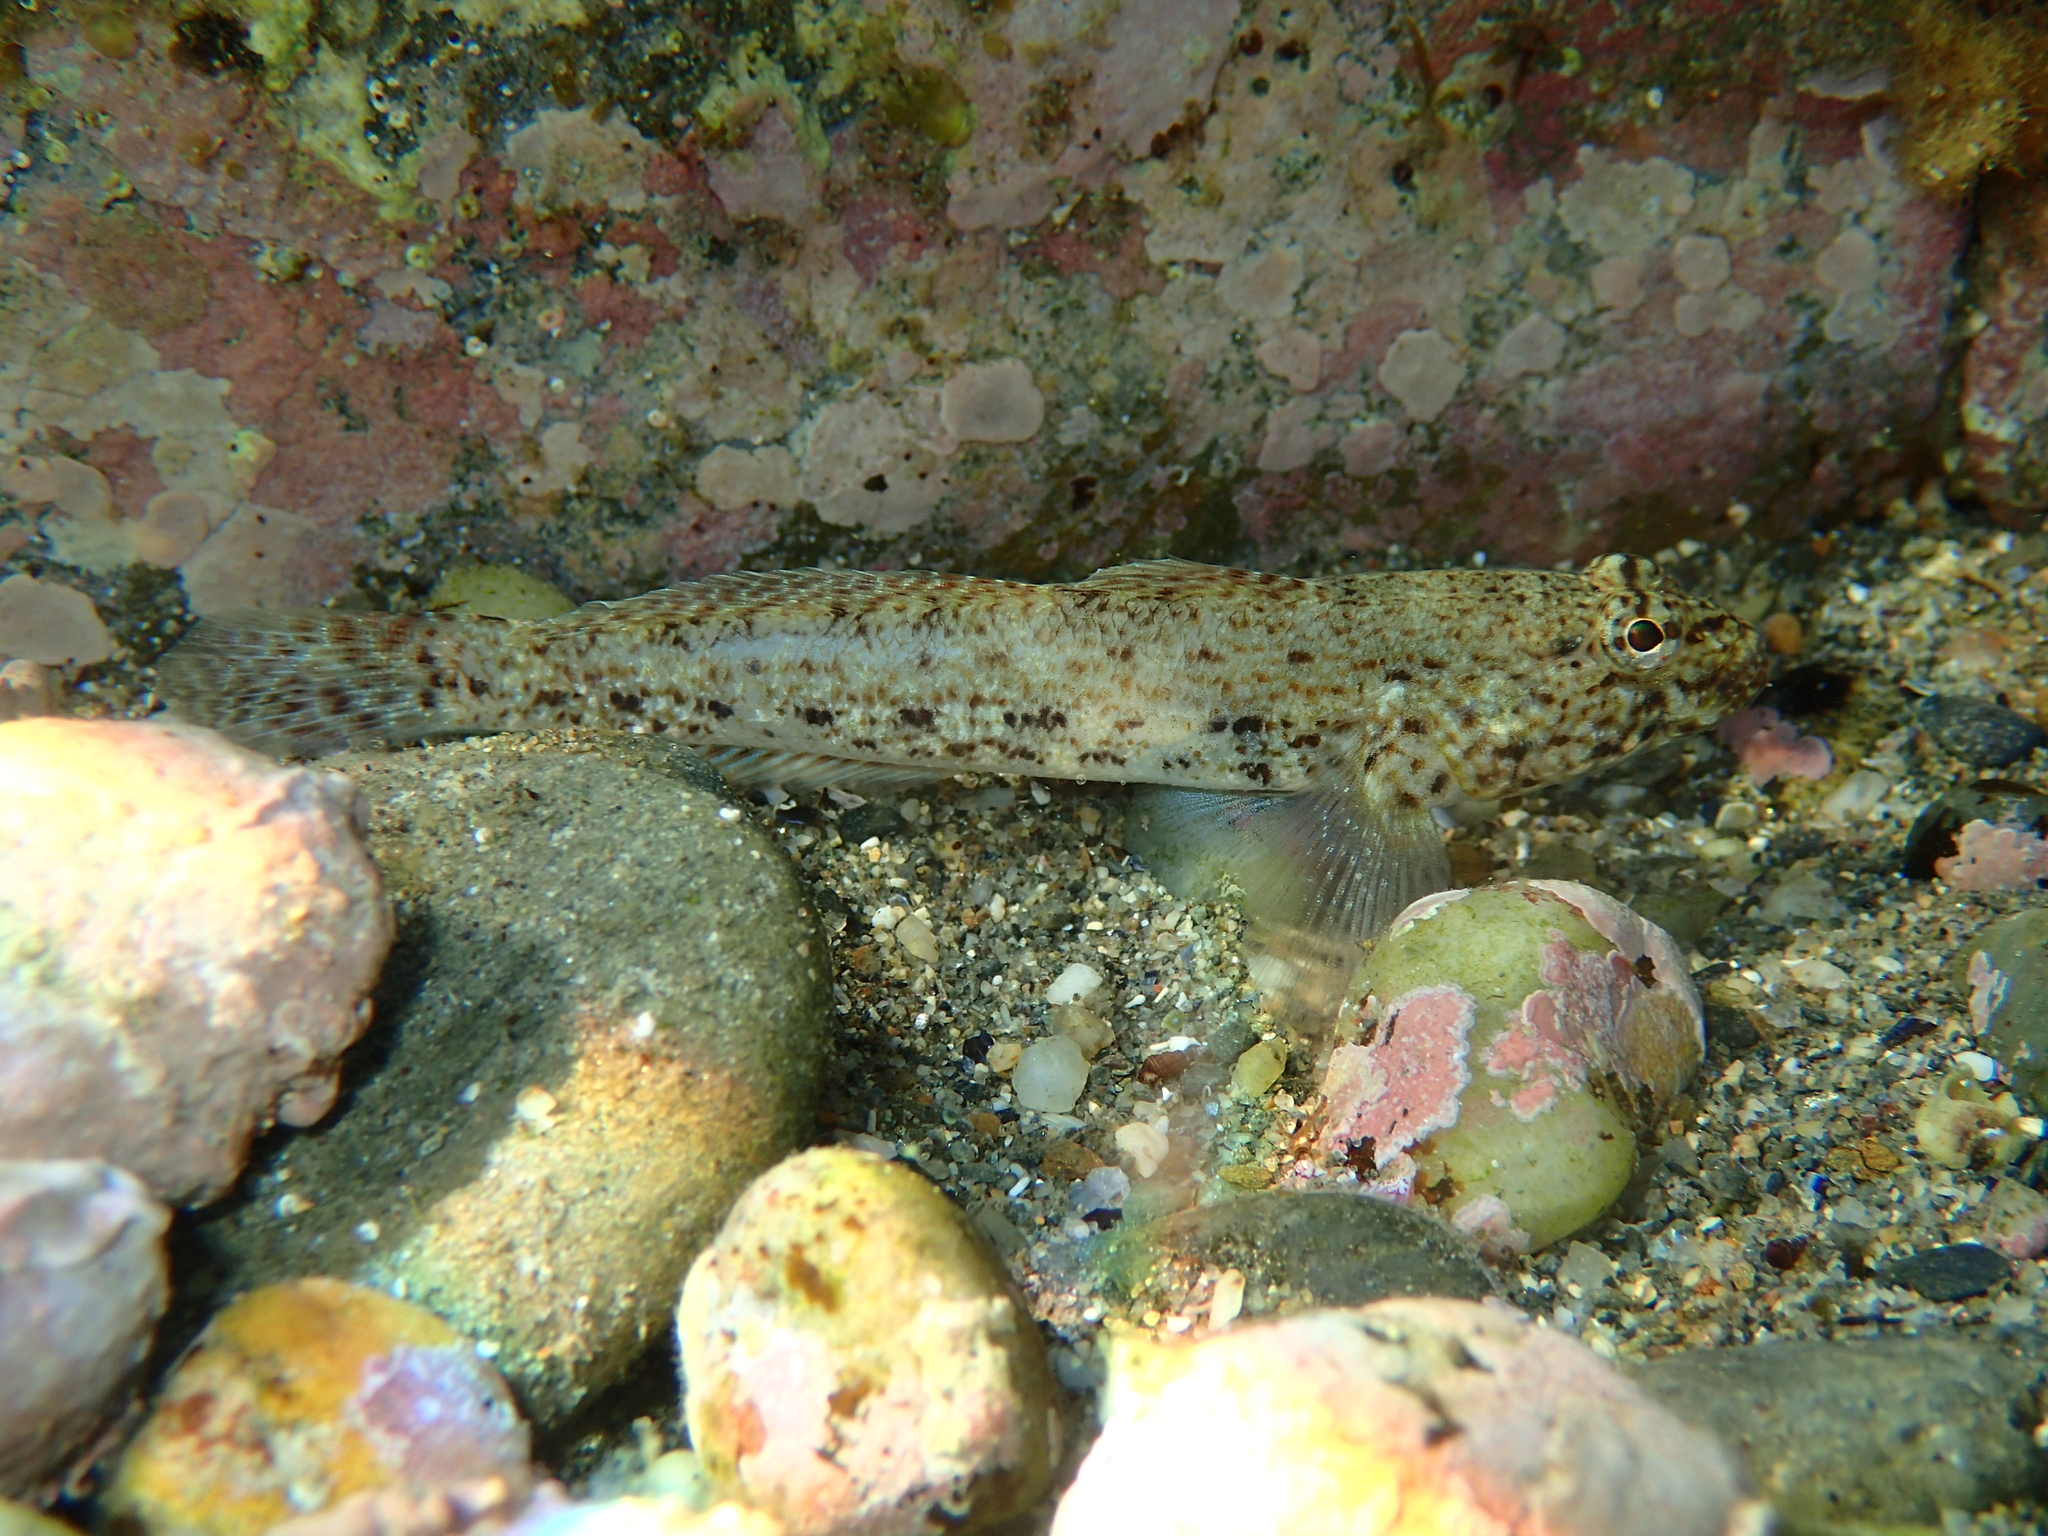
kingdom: Animalia
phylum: Chordata
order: Perciformes
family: Gobiidae
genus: Gobius
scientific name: Gobius incognitus
